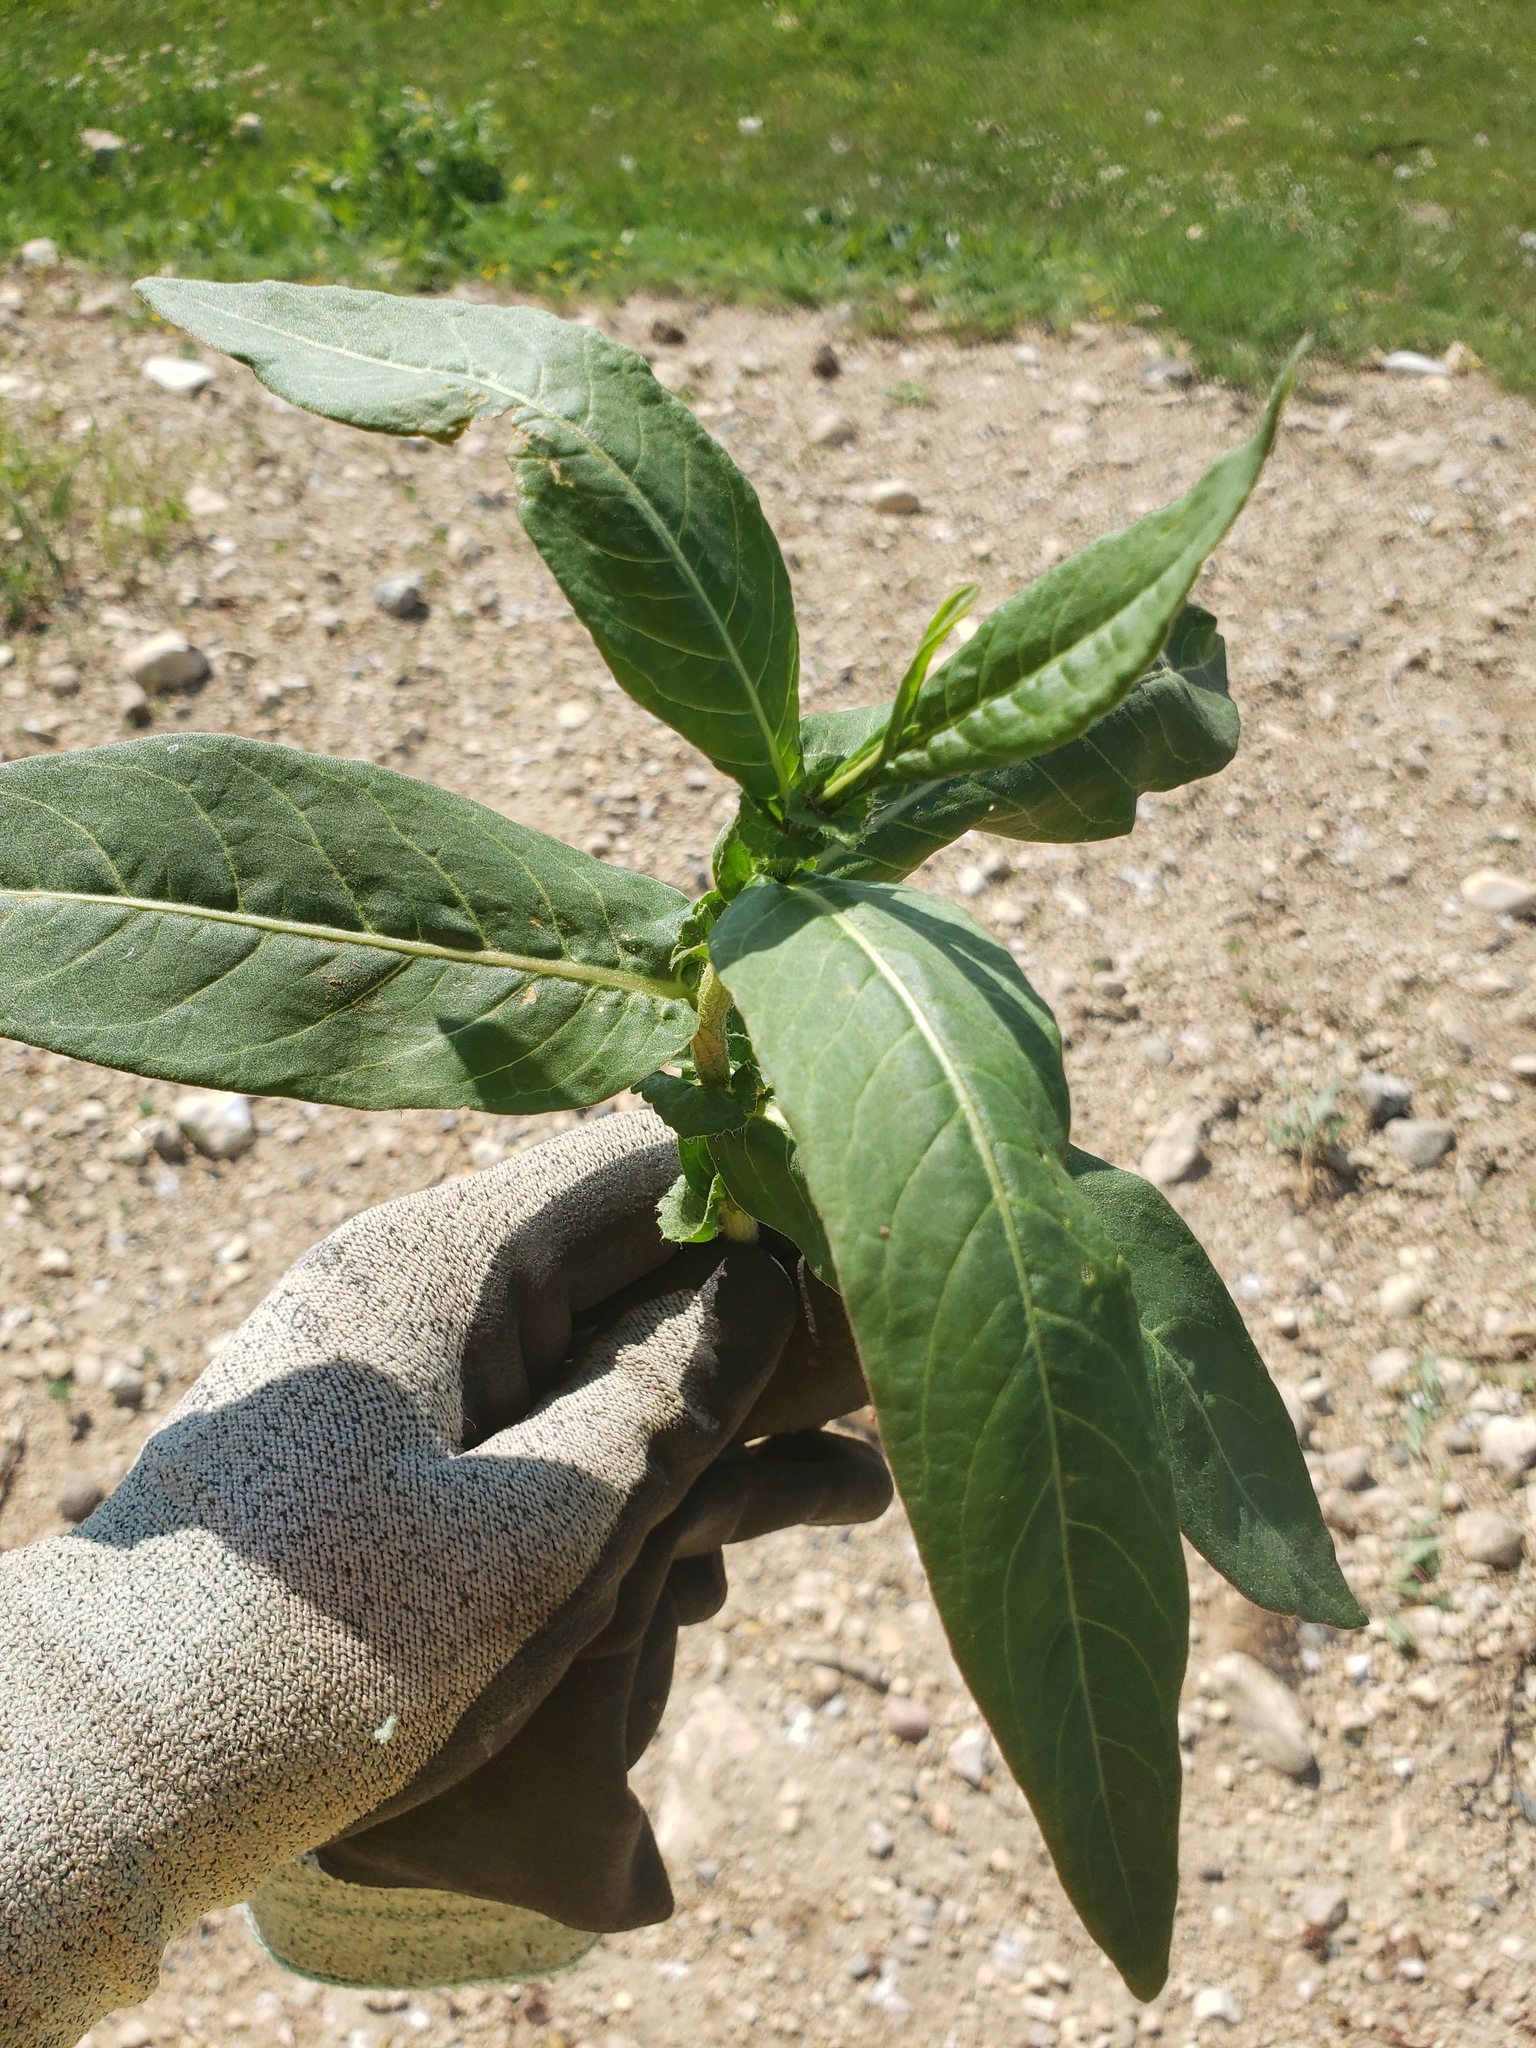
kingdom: Plantae
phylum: Tracheophyta
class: Magnoliopsida
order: Caryophyllales
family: Polygonaceae
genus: Persicaria
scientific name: Persicaria amphibia
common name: Amphibious bistort
